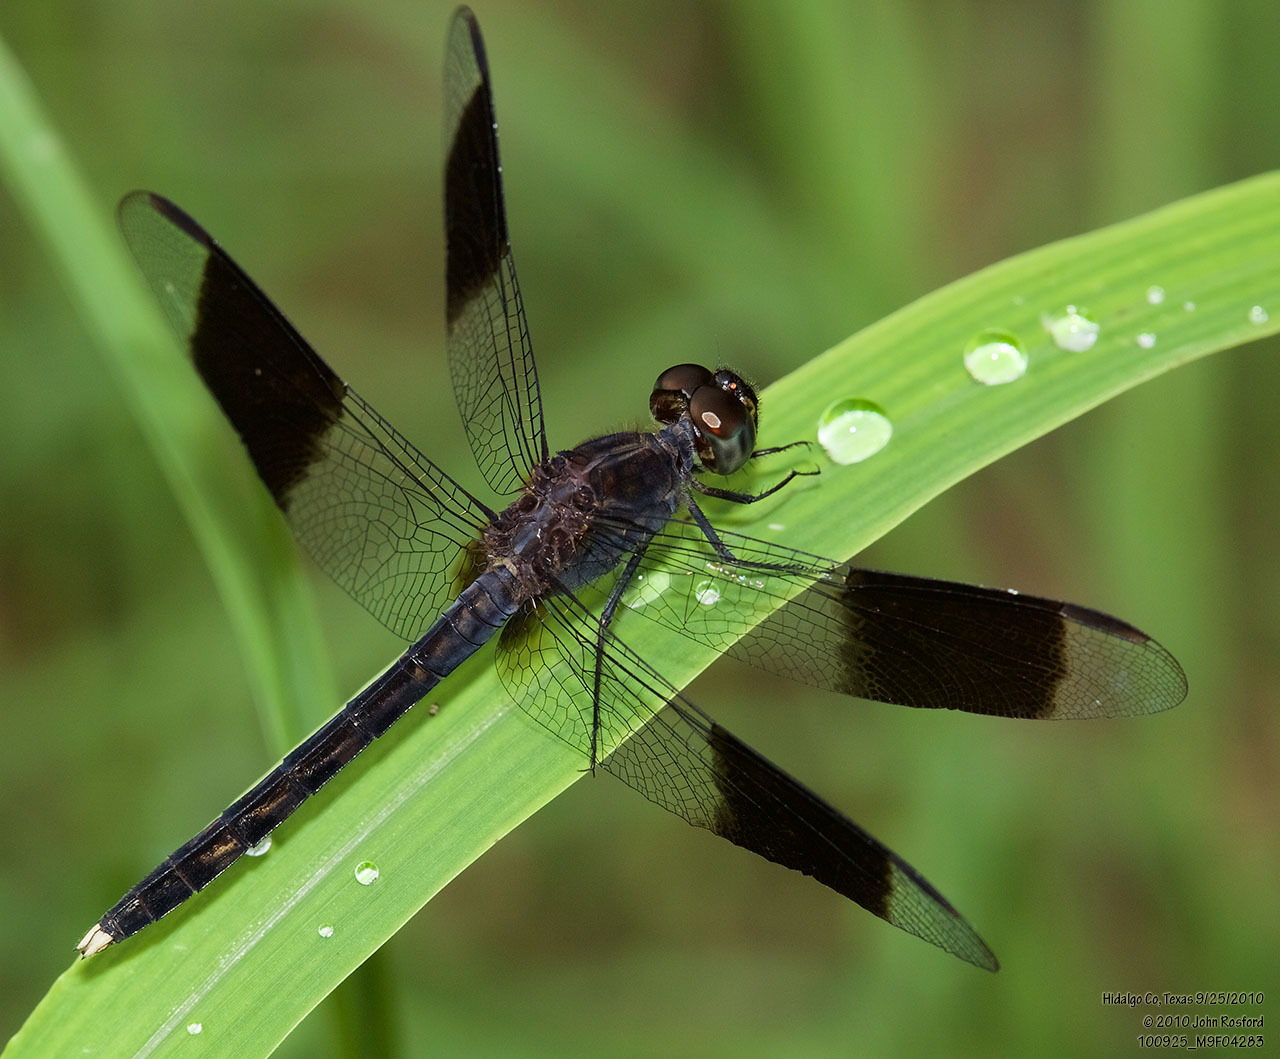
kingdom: Animalia
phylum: Arthropoda
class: Insecta
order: Odonata
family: Libellulidae
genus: Erythrodiplax
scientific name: Erythrodiplax umbrata
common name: Band-winged dragonlet
